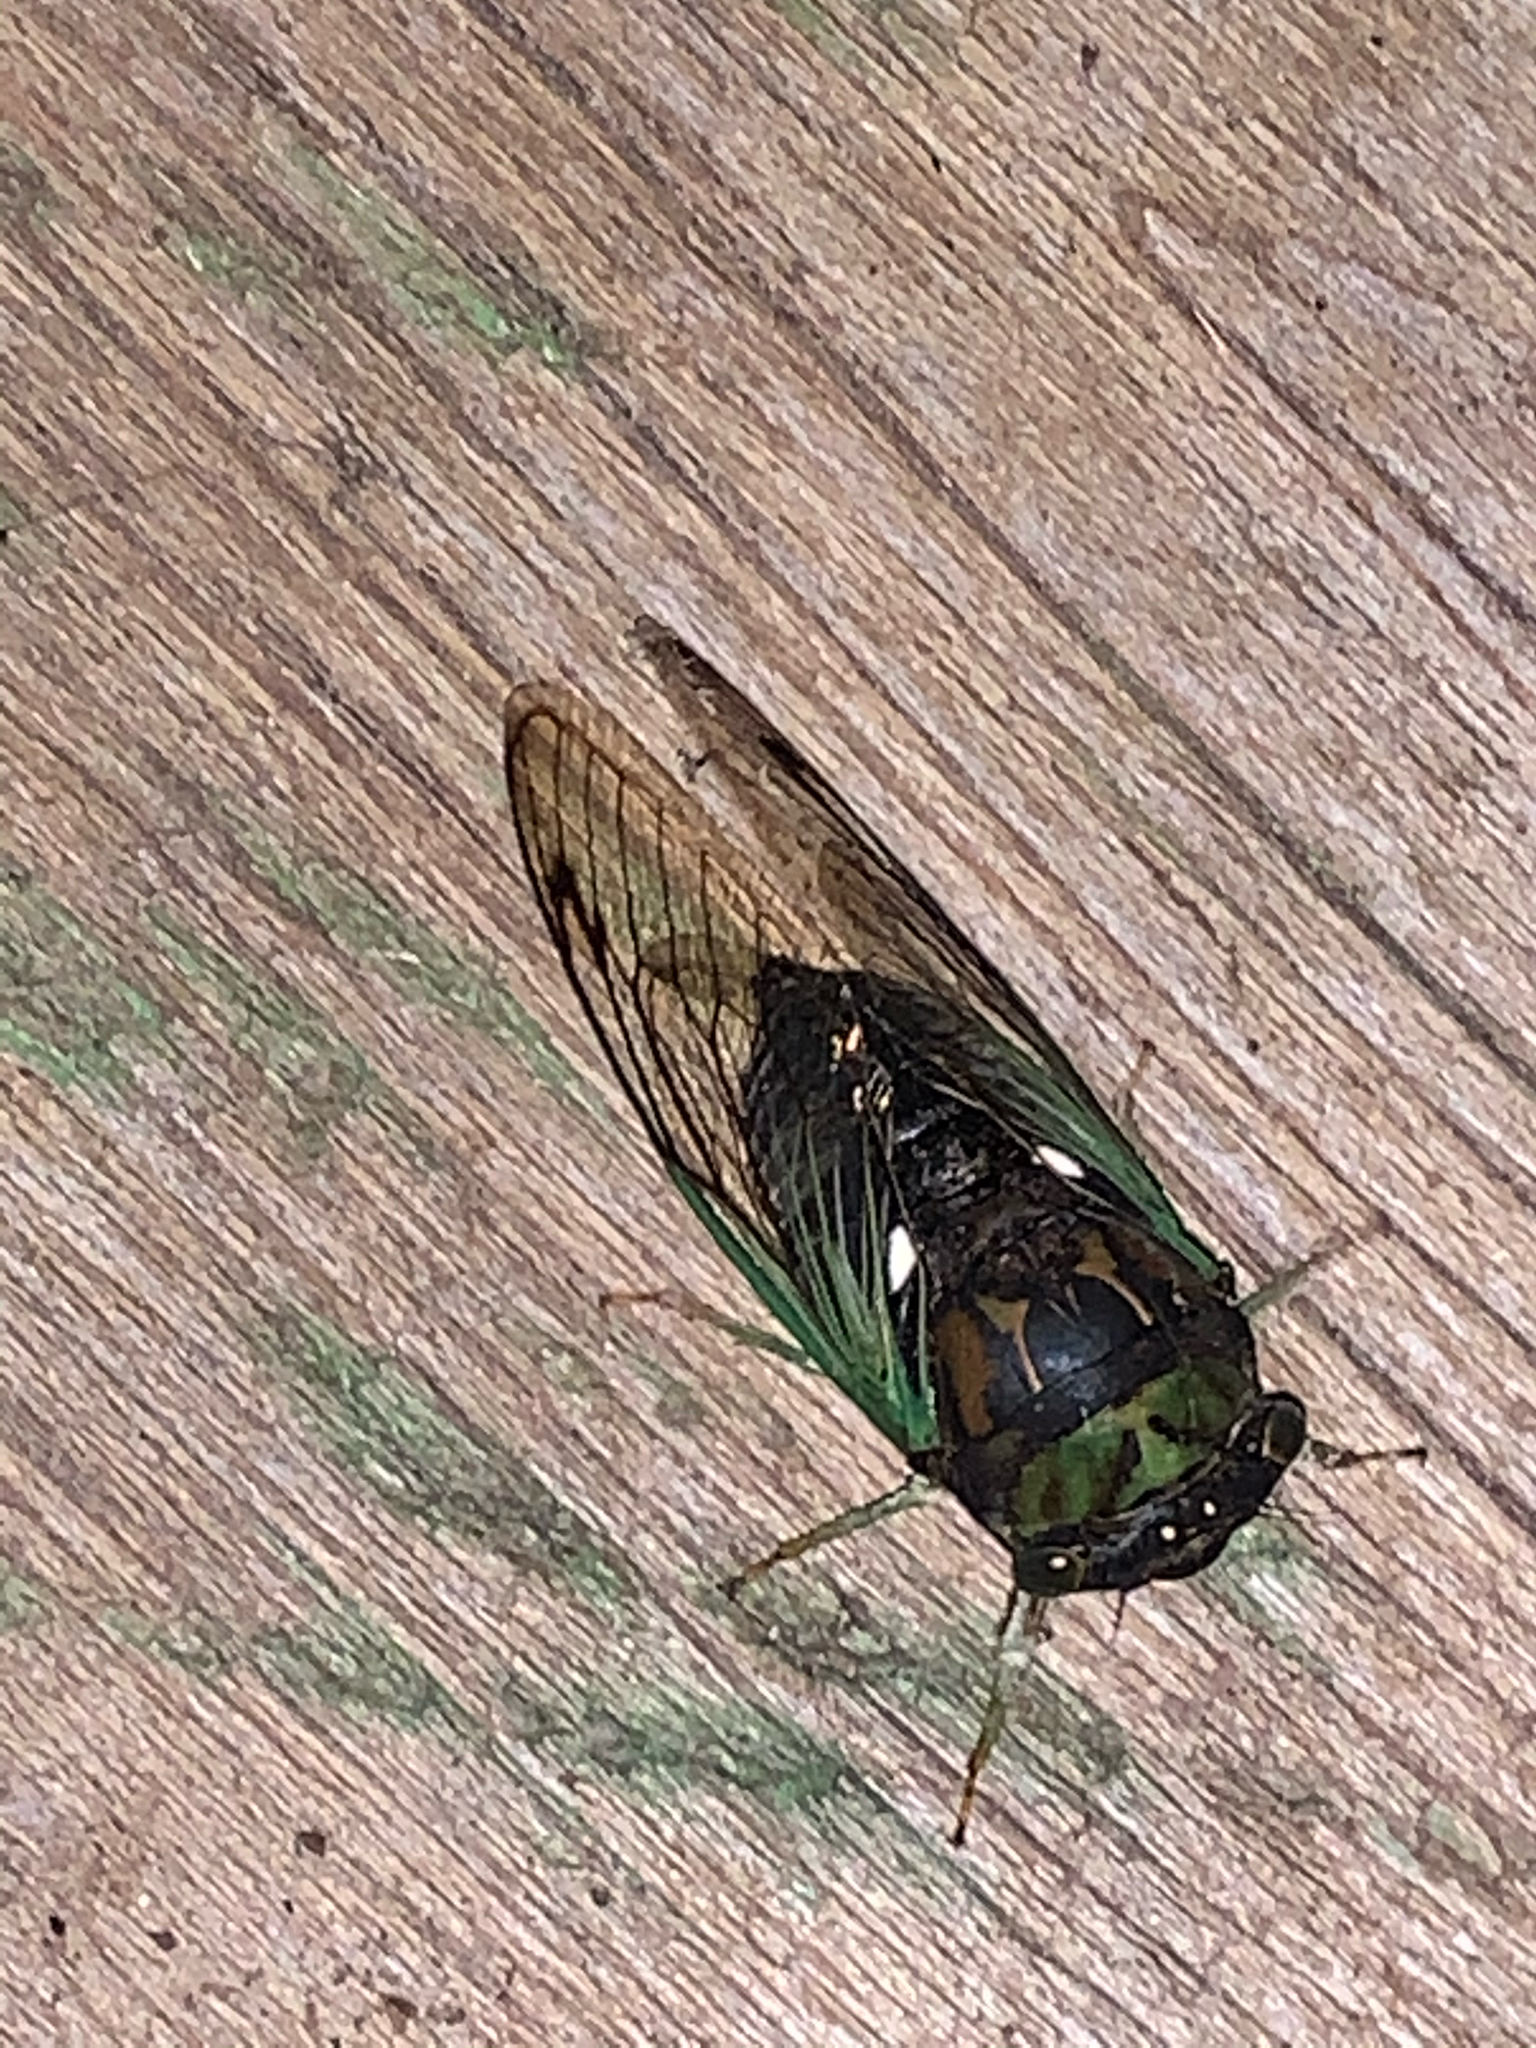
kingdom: Animalia
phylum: Arthropoda
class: Insecta
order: Hemiptera
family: Cicadidae
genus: Neotibicen
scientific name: Neotibicen tibicen
